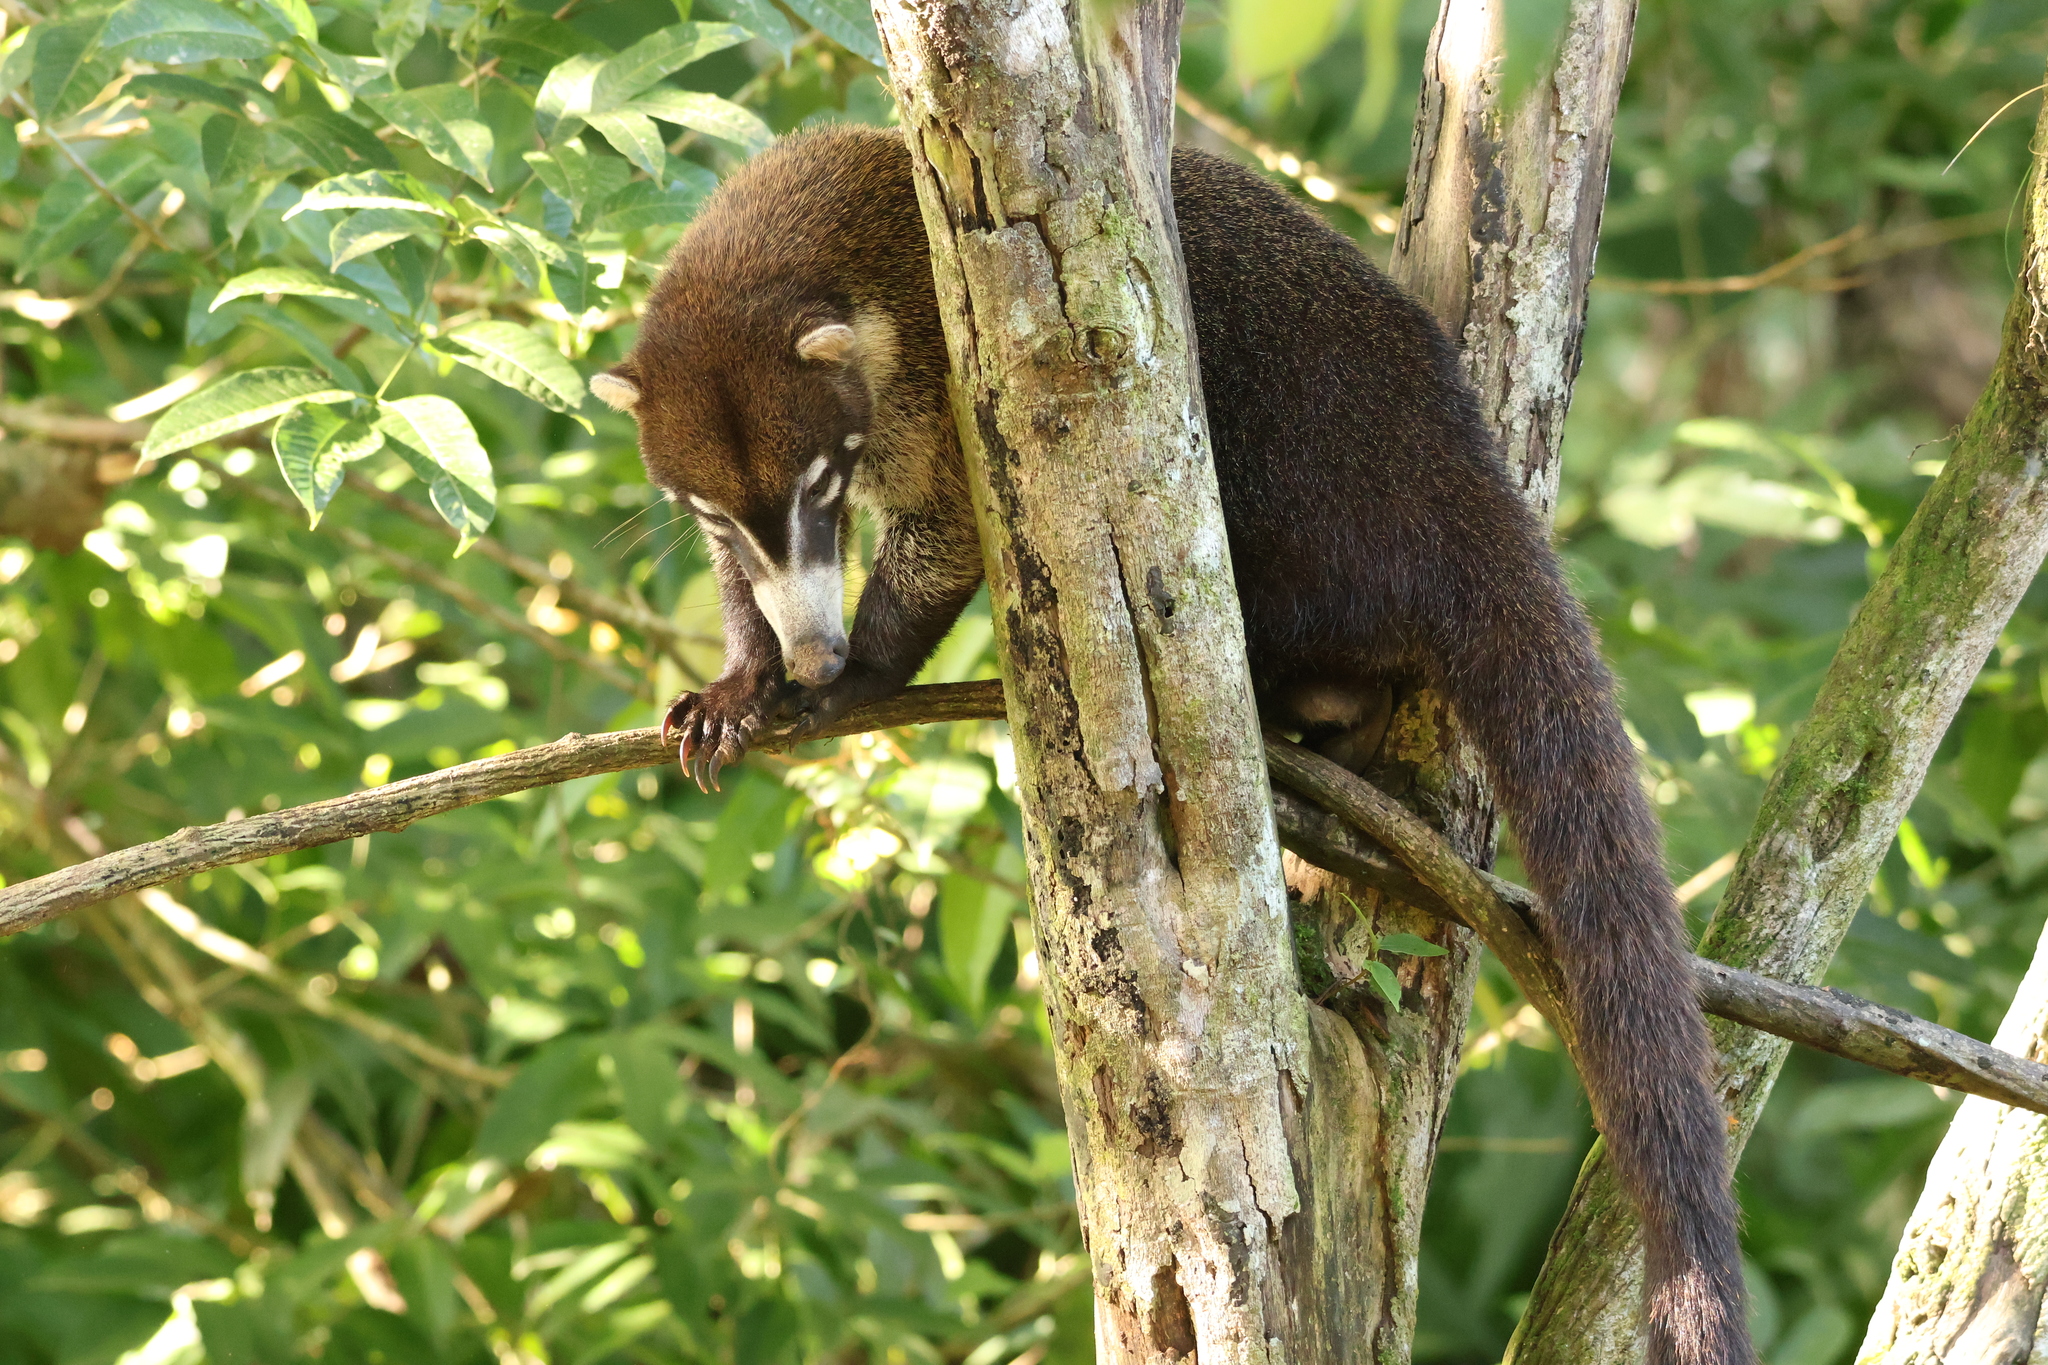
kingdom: Animalia
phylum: Chordata
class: Mammalia
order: Carnivora
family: Procyonidae
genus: Nasua
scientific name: Nasua narica
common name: White-nosed coati
